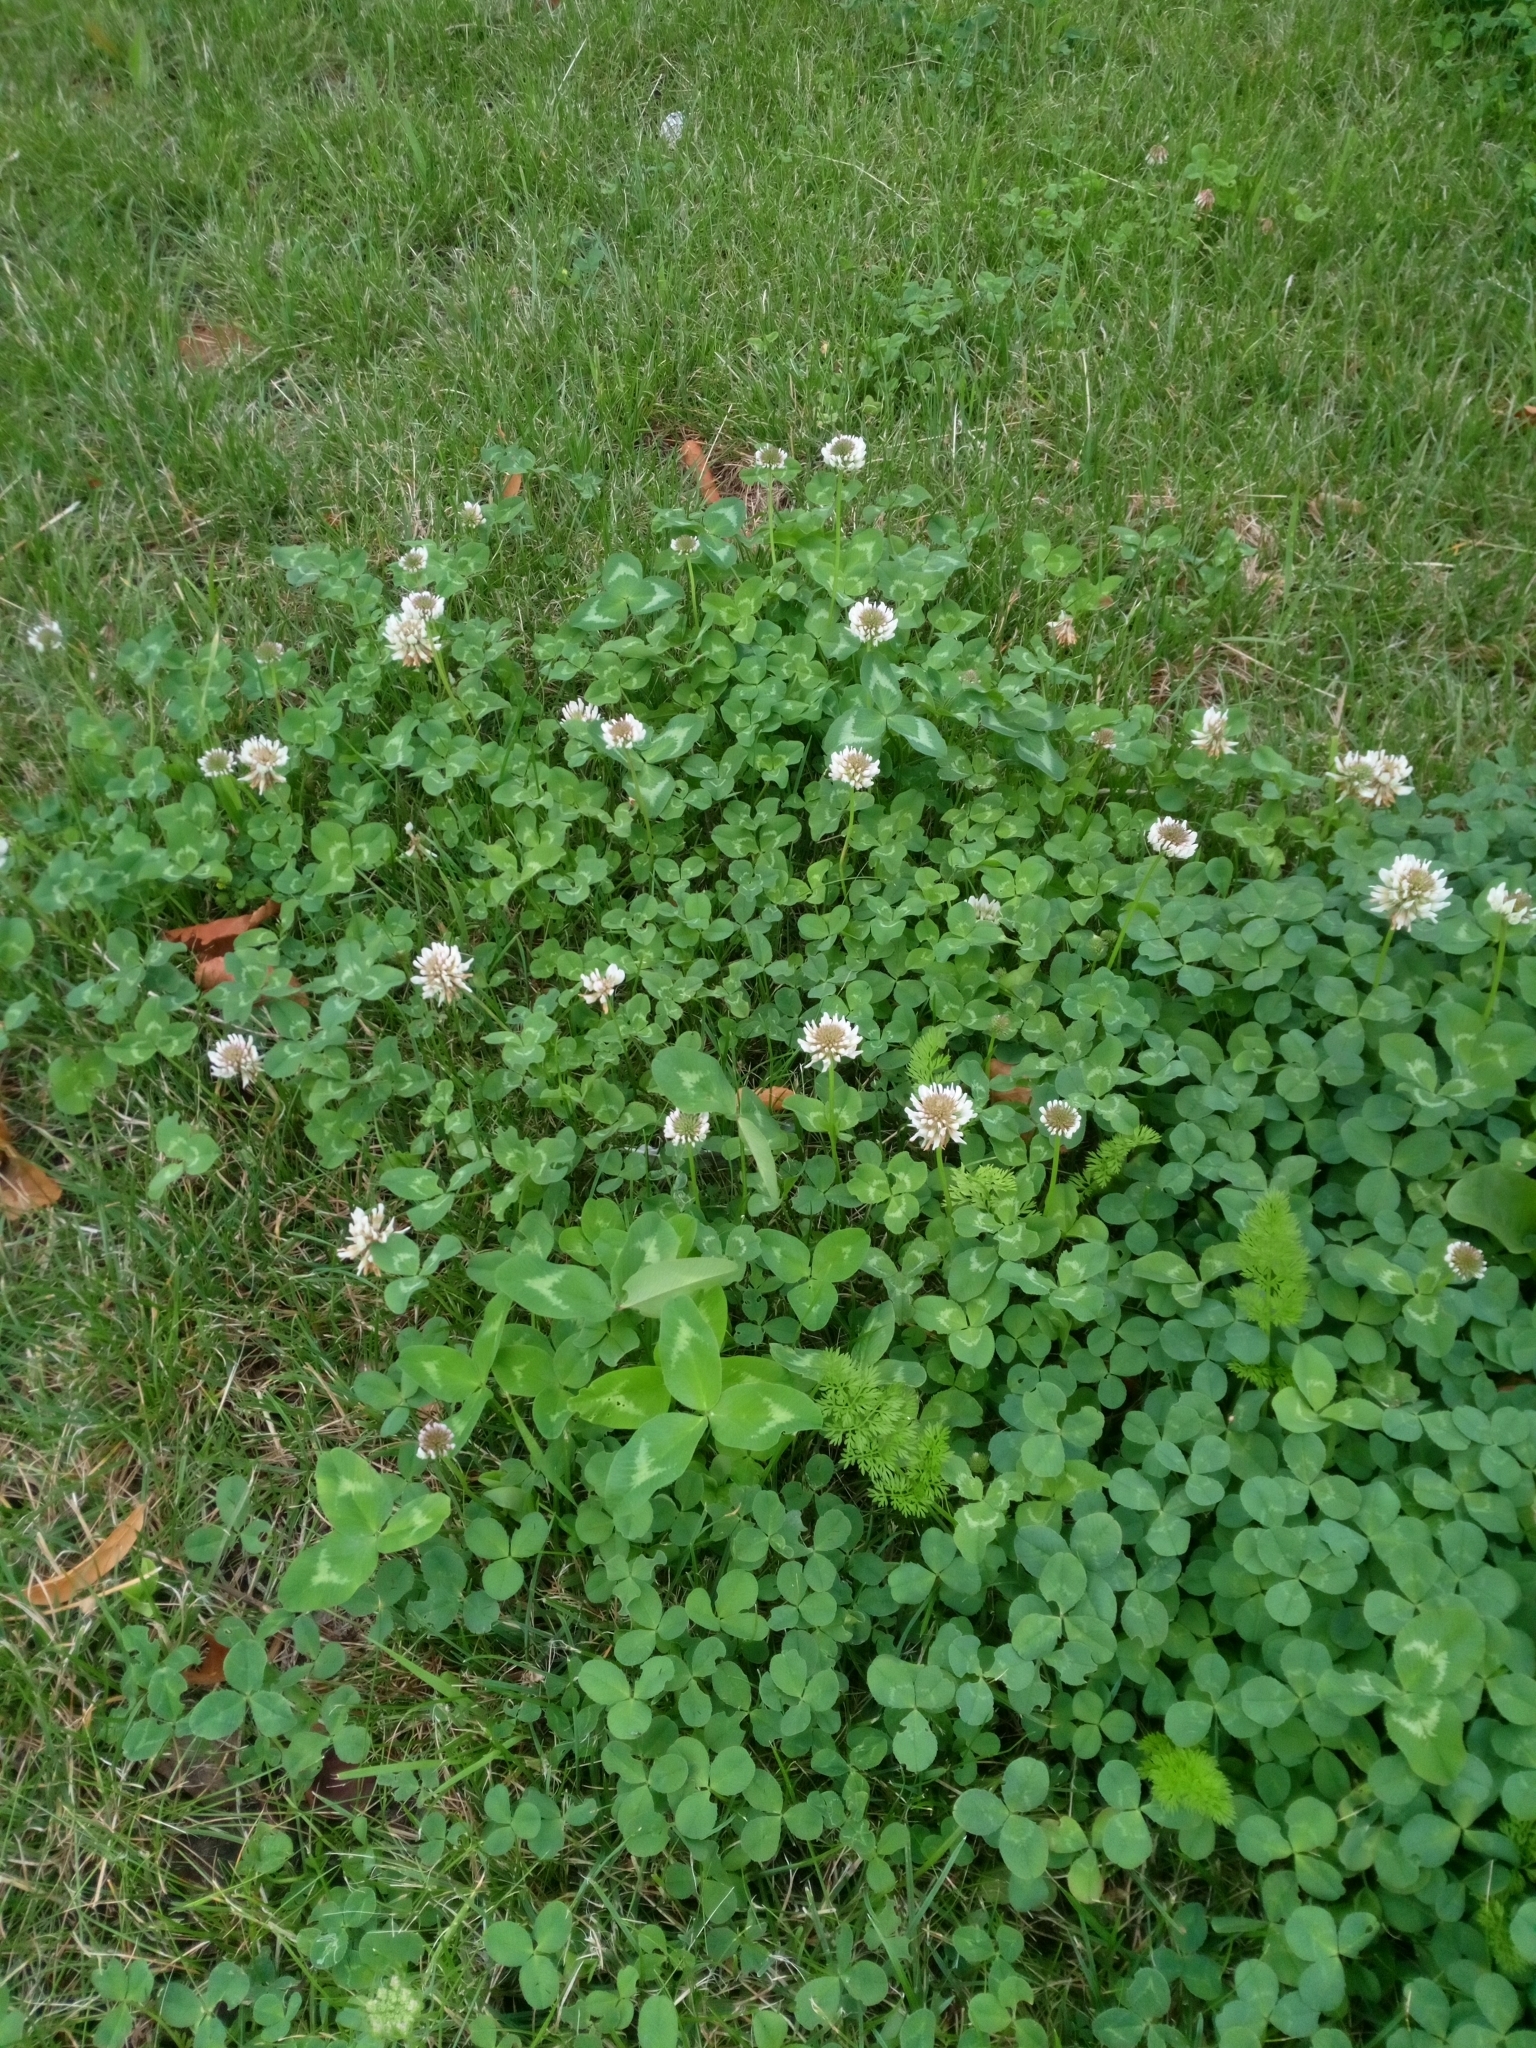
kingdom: Plantae
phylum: Tracheophyta
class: Magnoliopsida
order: Fabales
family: Fabaceae
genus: Trifolium
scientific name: Trifolium repens
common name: White clover
